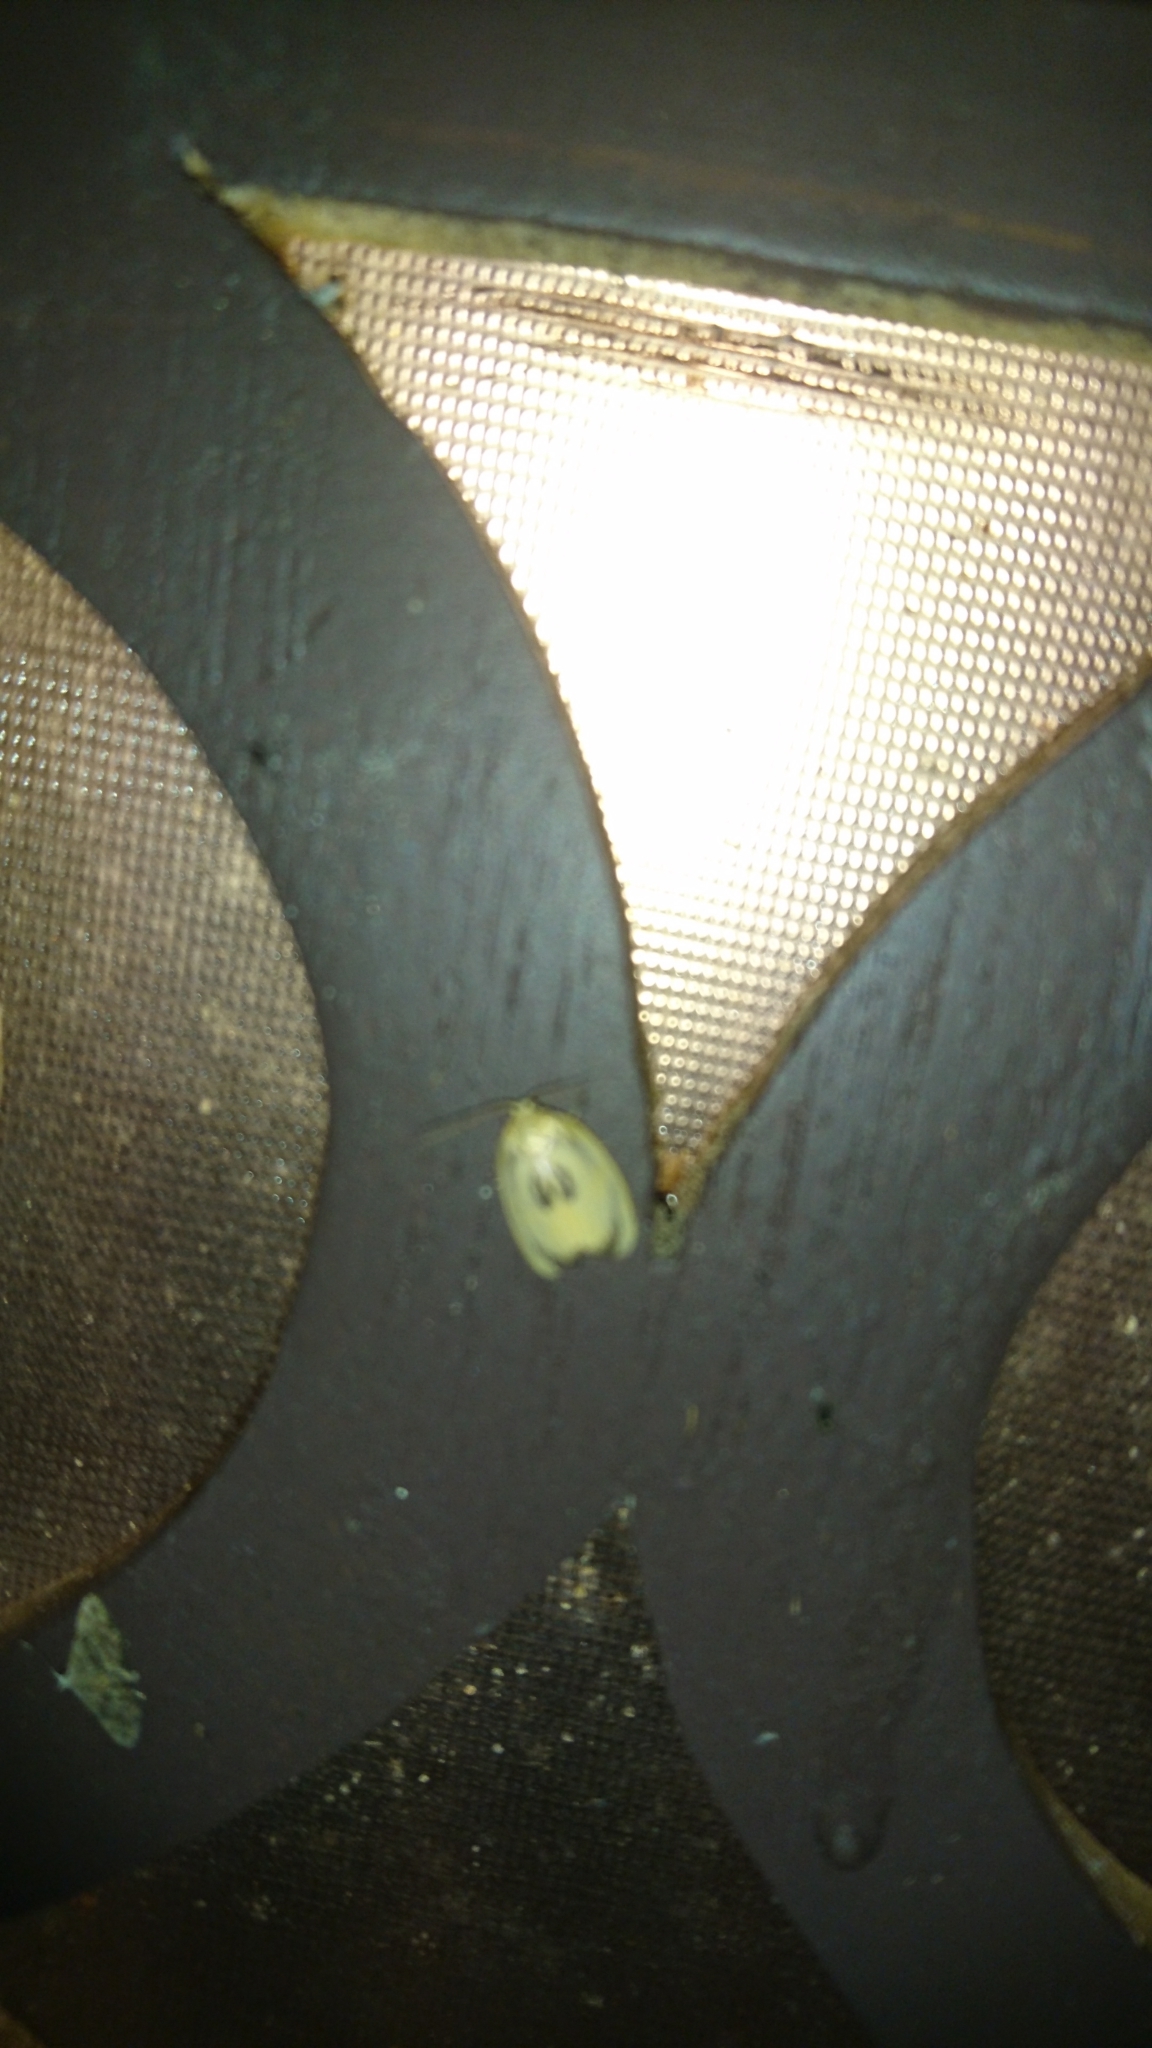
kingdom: Animalia
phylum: Arthropoda
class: Insecta
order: Lepidoptera
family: Erebidae
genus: Trischalis
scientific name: Trischalis subaurana
